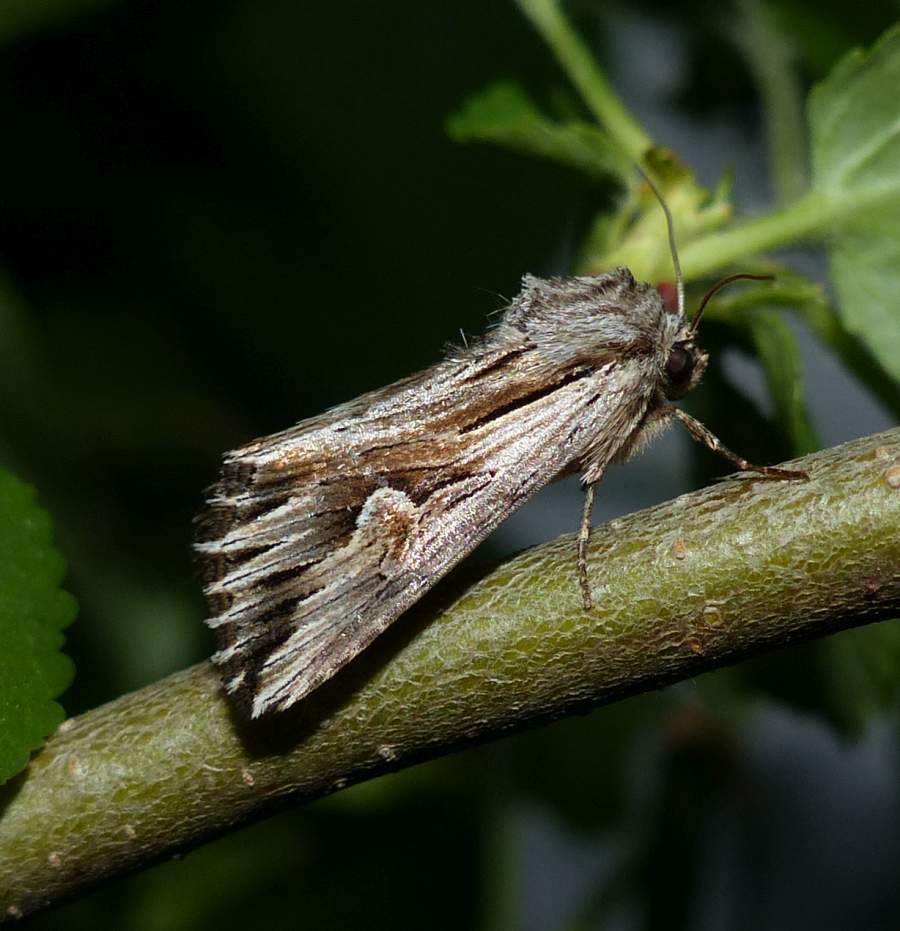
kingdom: Animalia
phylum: Arthropoda
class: Insecta
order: Lepidoptera
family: Noctuidae
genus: Nedra
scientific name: Nedra ramosula
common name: Gray half-spot
